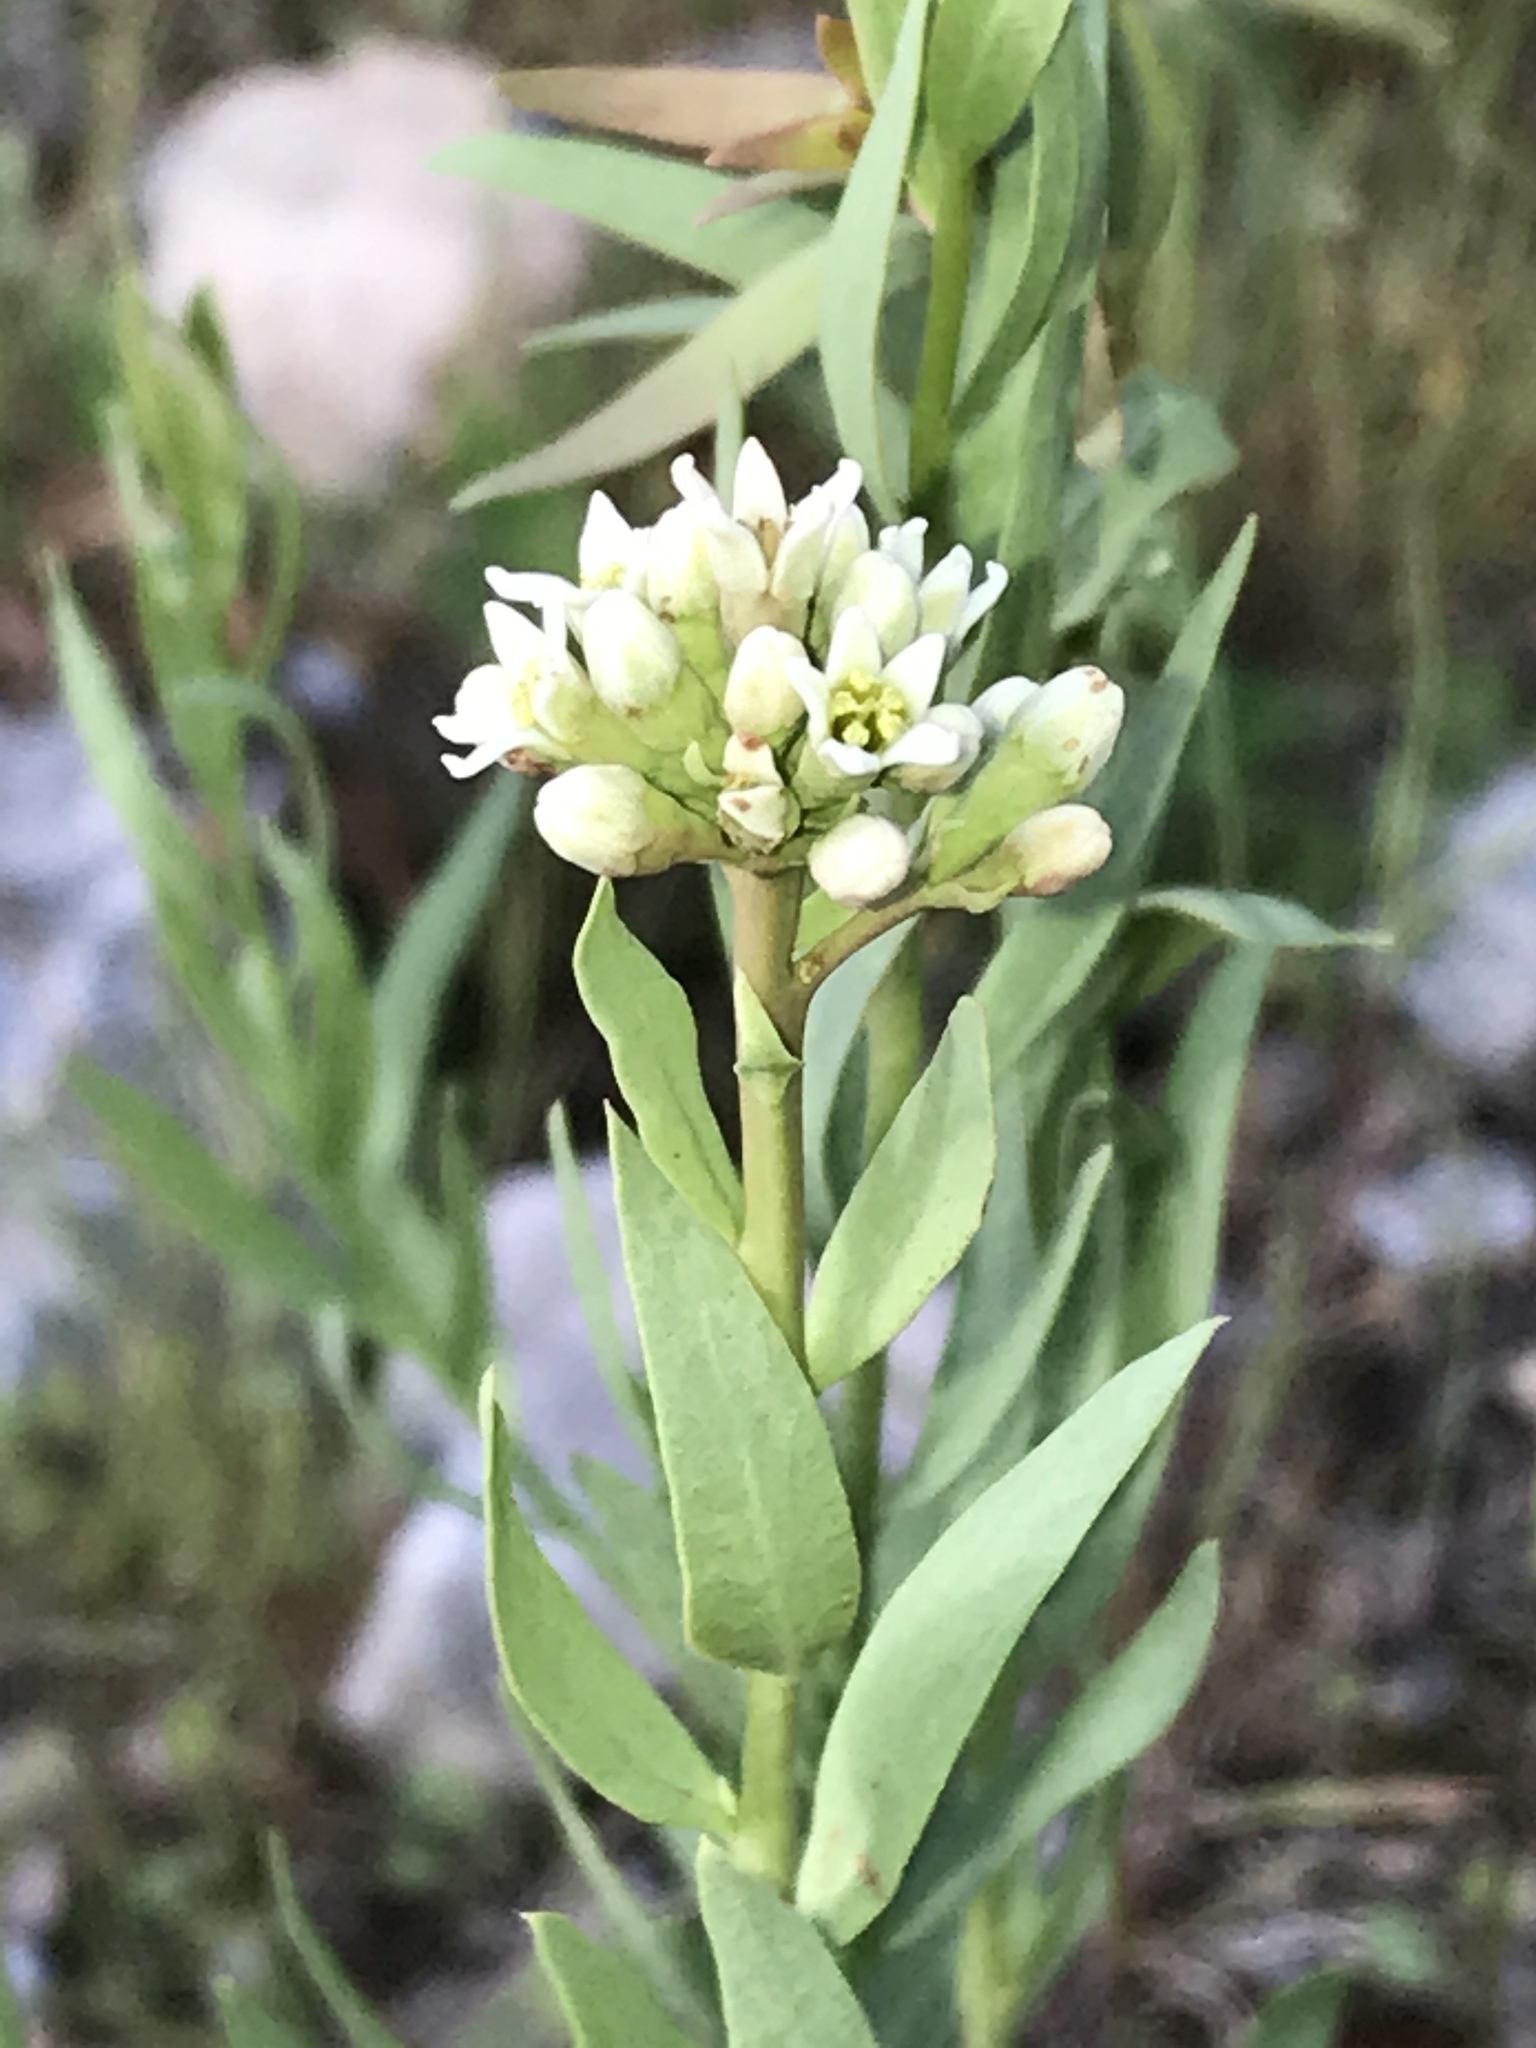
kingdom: Plantae
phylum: Tracheophyta
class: Magnoliopsida
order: Santalales
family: Comandraceae
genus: Comandra
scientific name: Comandra umbellata
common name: Bastard toadflax
